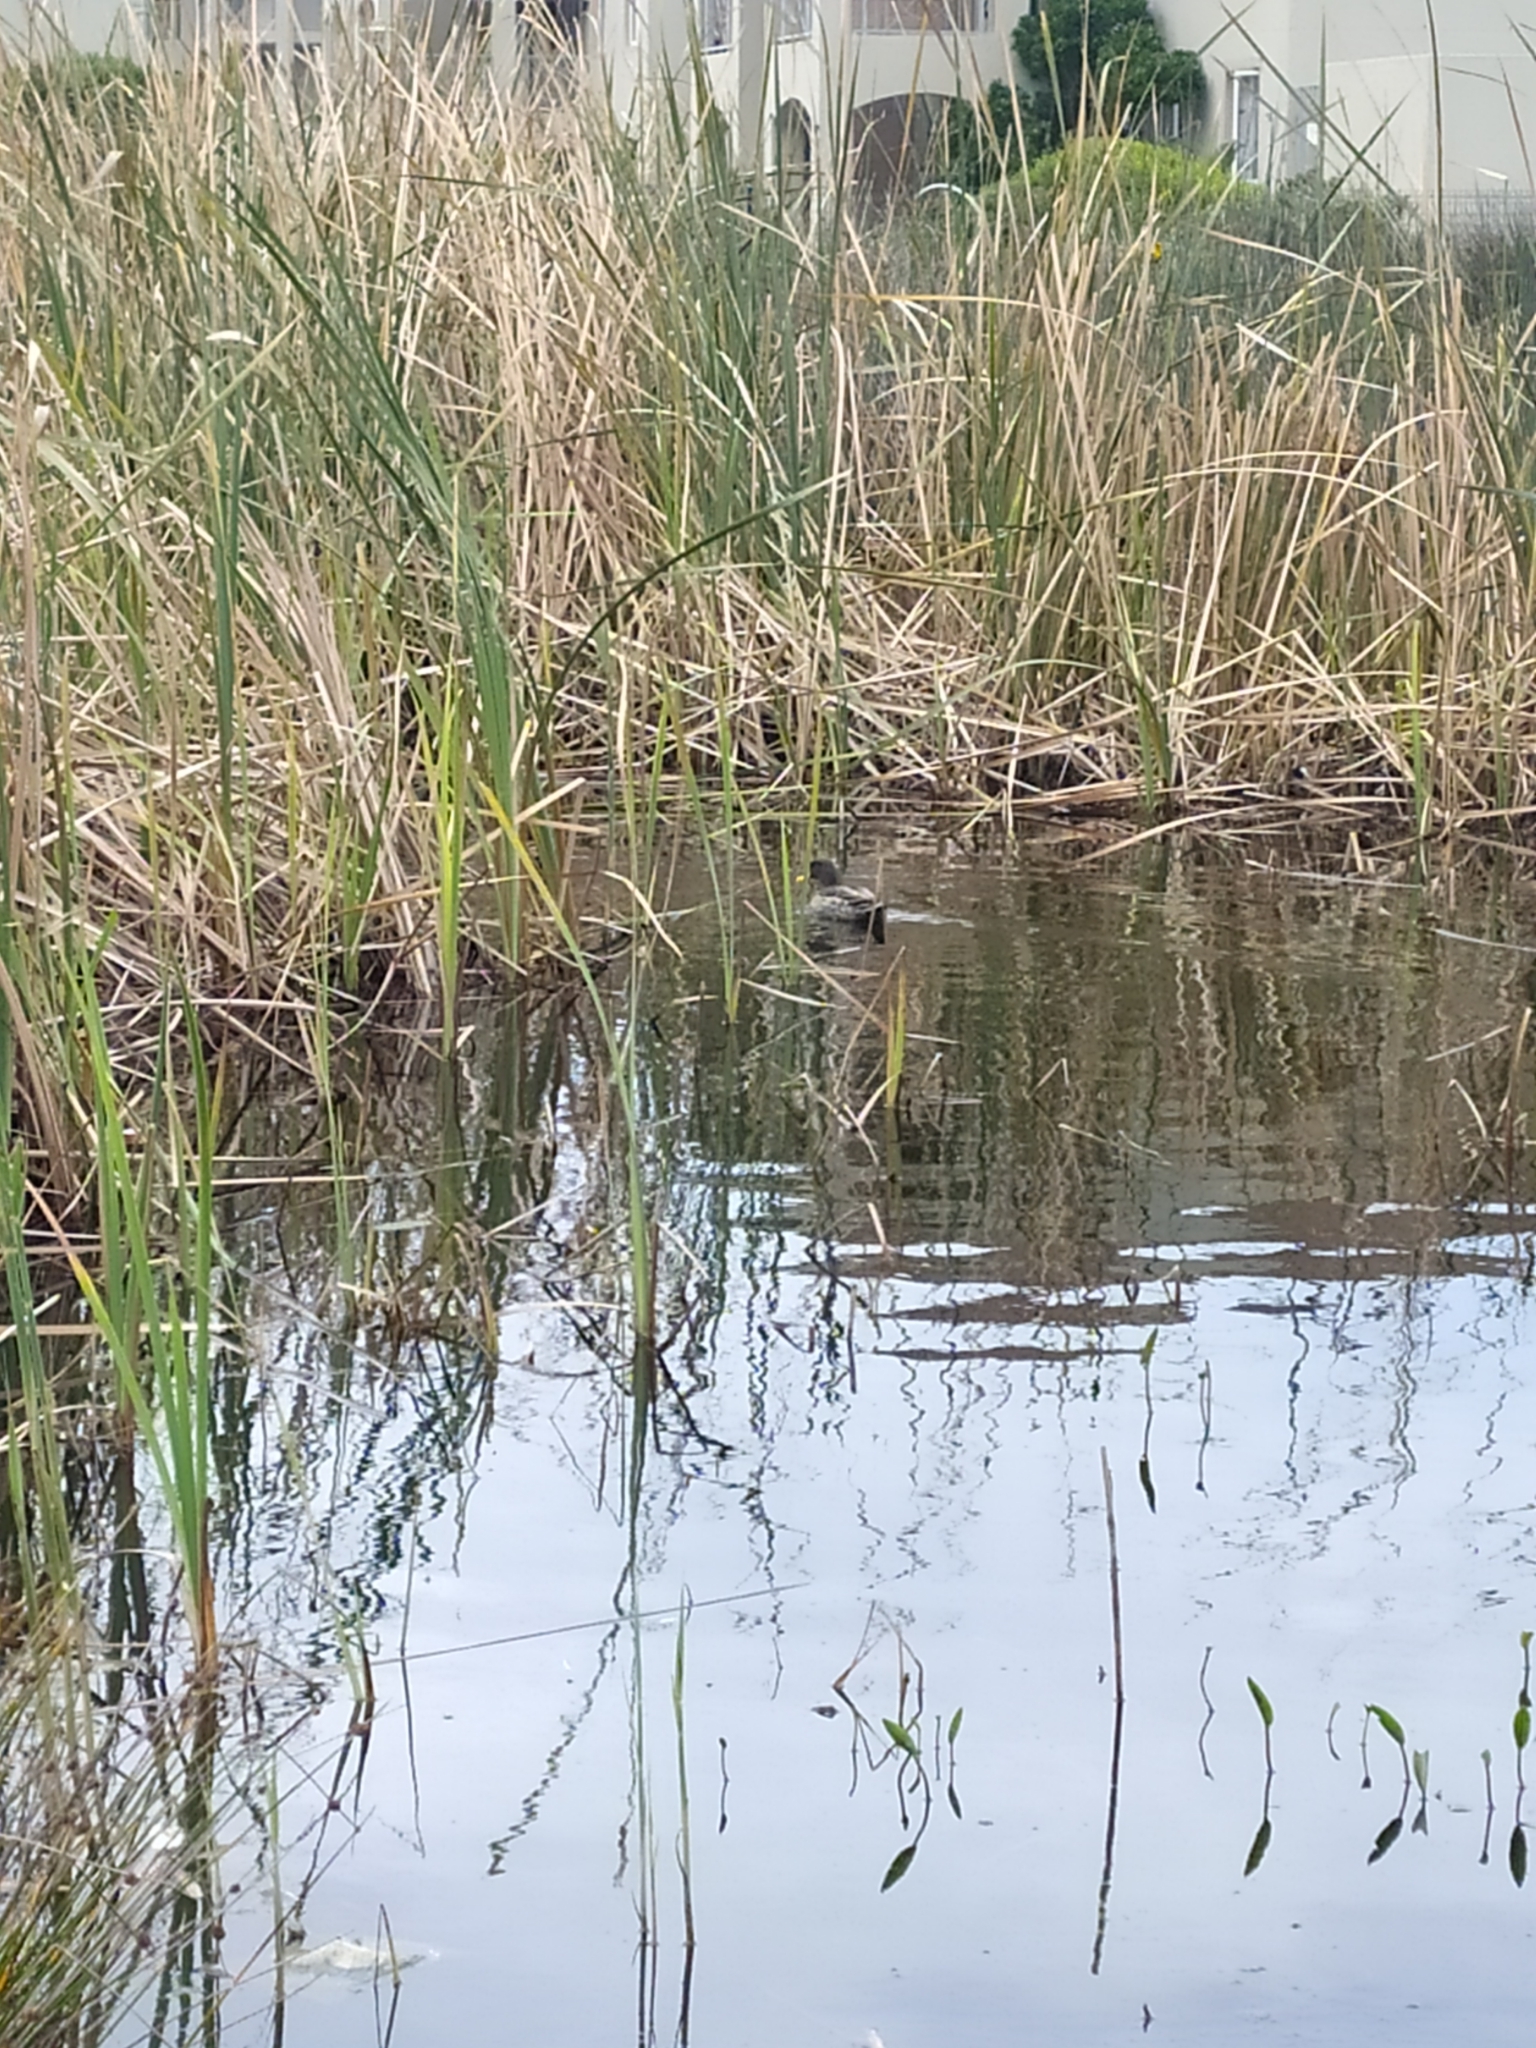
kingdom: Animalia
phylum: Chordata
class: Aves
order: Anseriformes
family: Anatidae
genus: Anas
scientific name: Anas undulata
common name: Yellow-billed duck
